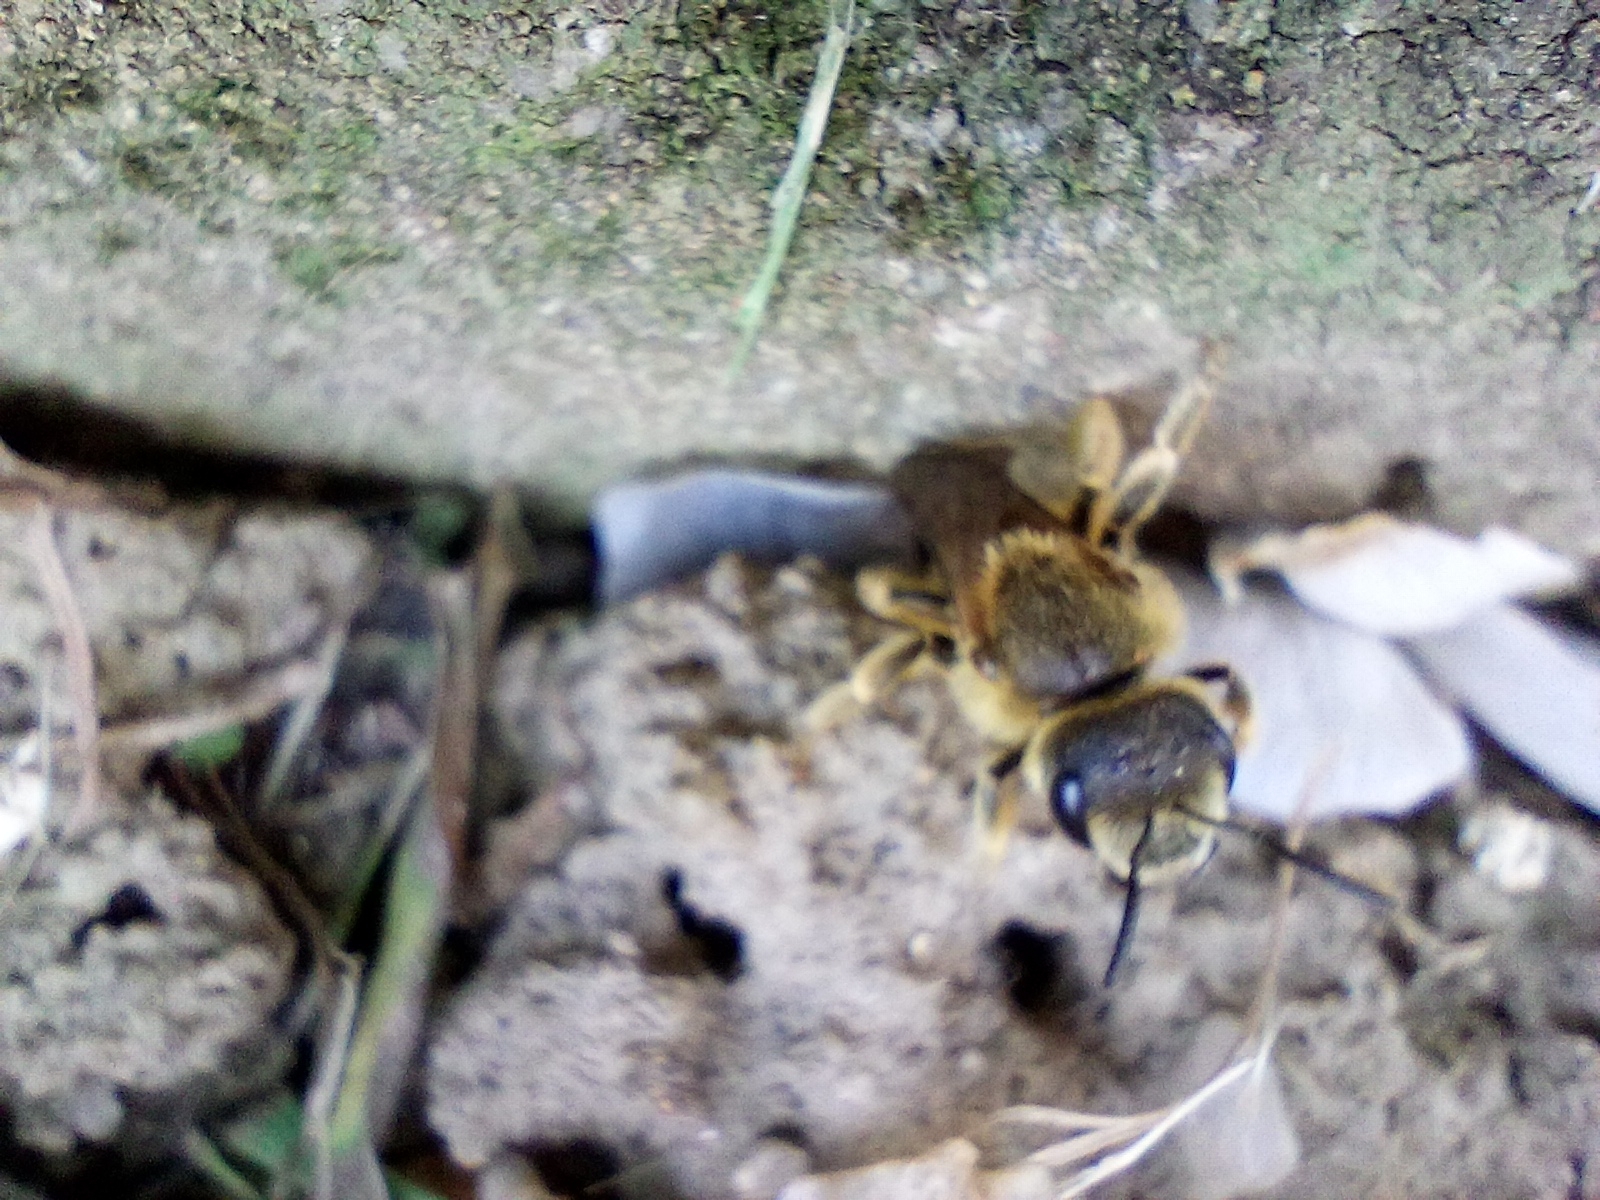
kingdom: Animalia
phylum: Arthropoda
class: Insecta
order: Hymenoptera
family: Halictidae
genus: Halictus
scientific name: Halictus scabiosae
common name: Great banded furrow bee
